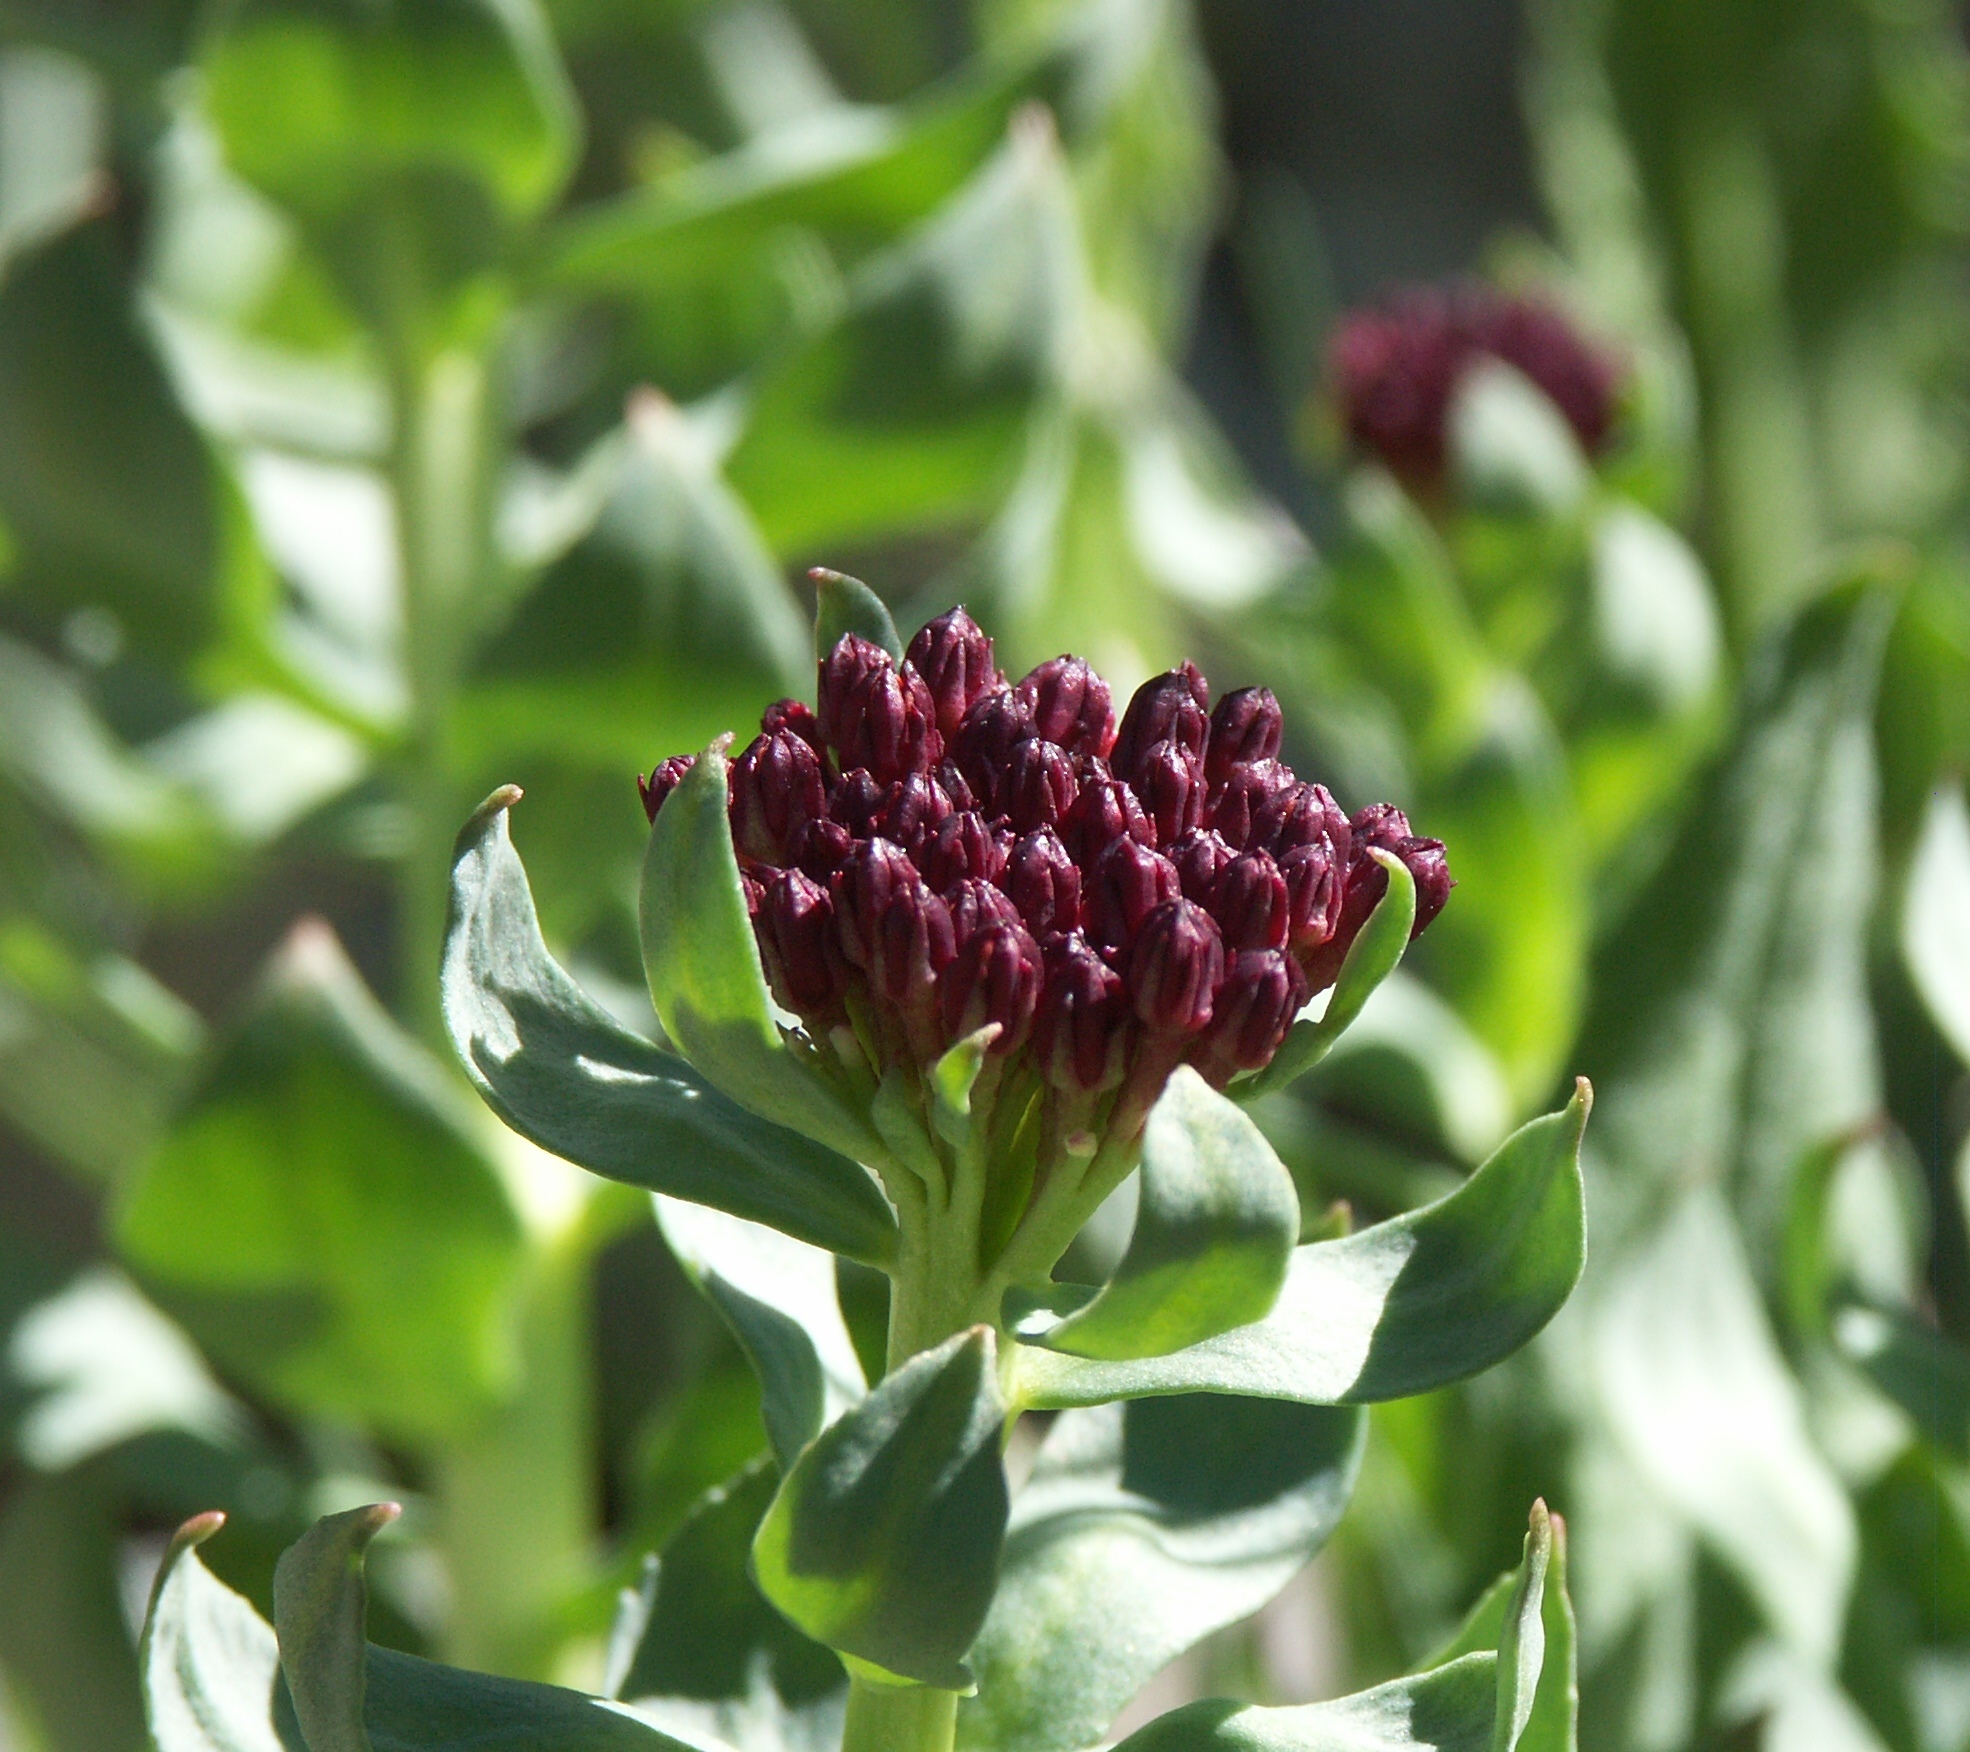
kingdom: Plantae
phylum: Tracheophyta
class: Magnoliopsida
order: Saxifragales
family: Crassulaceae
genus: Rhodiola
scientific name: Rhodiola integrifolia
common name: Western roseroot
